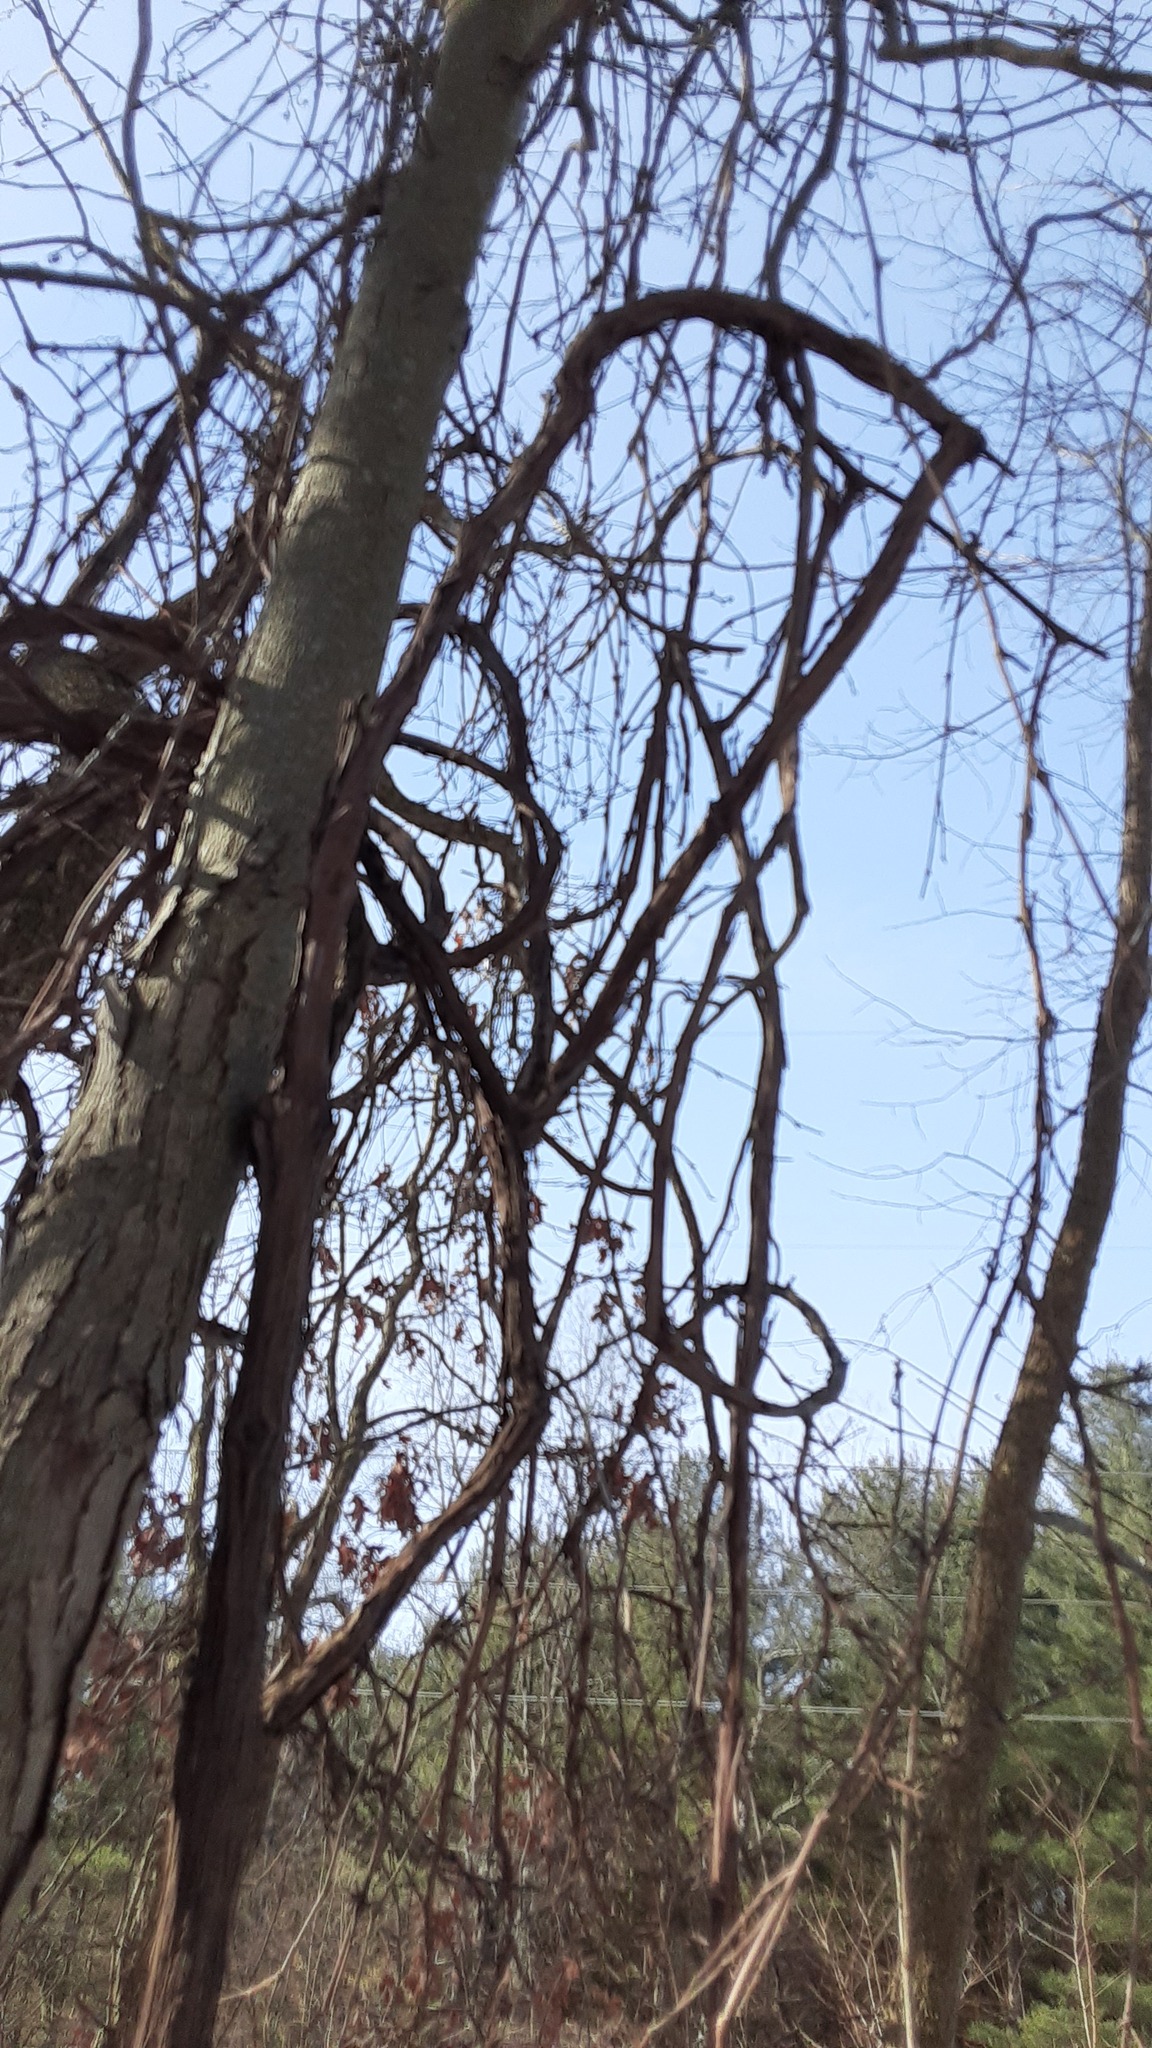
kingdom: Plantae
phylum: Tracheophyta
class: Magnoliopsida
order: Vitales
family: Vitaceae
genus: Vitis
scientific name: Vitis riparia
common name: Frost grape
